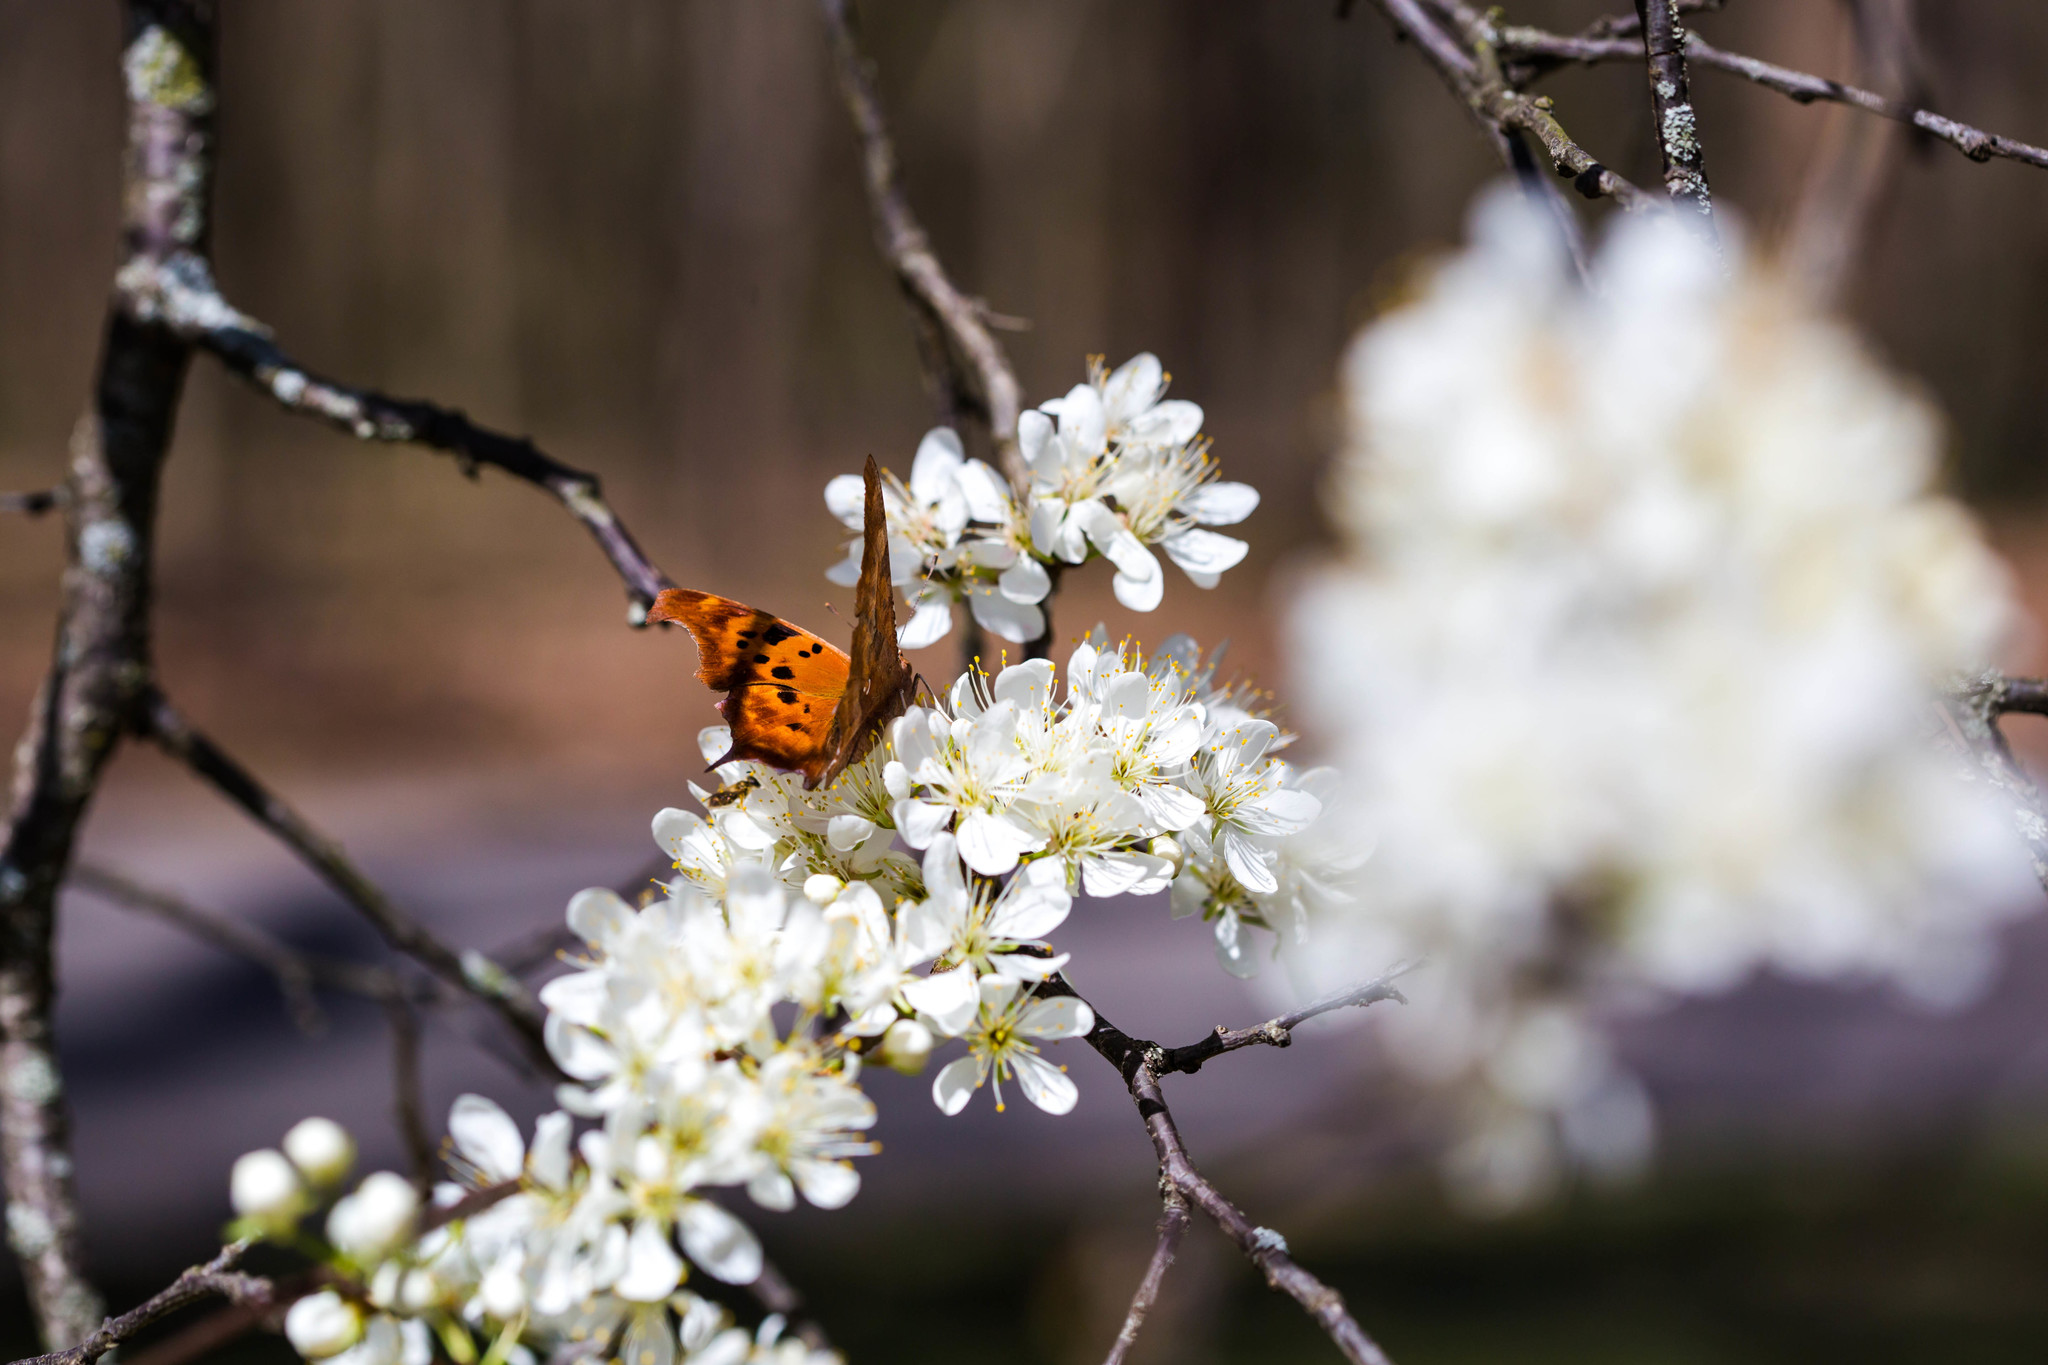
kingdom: Animalia
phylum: Arthropoda
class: Insecta
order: Lepidoptera
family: Nymphalidae
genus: Polygonia
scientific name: Polygonia interrogationis
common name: Question mark
